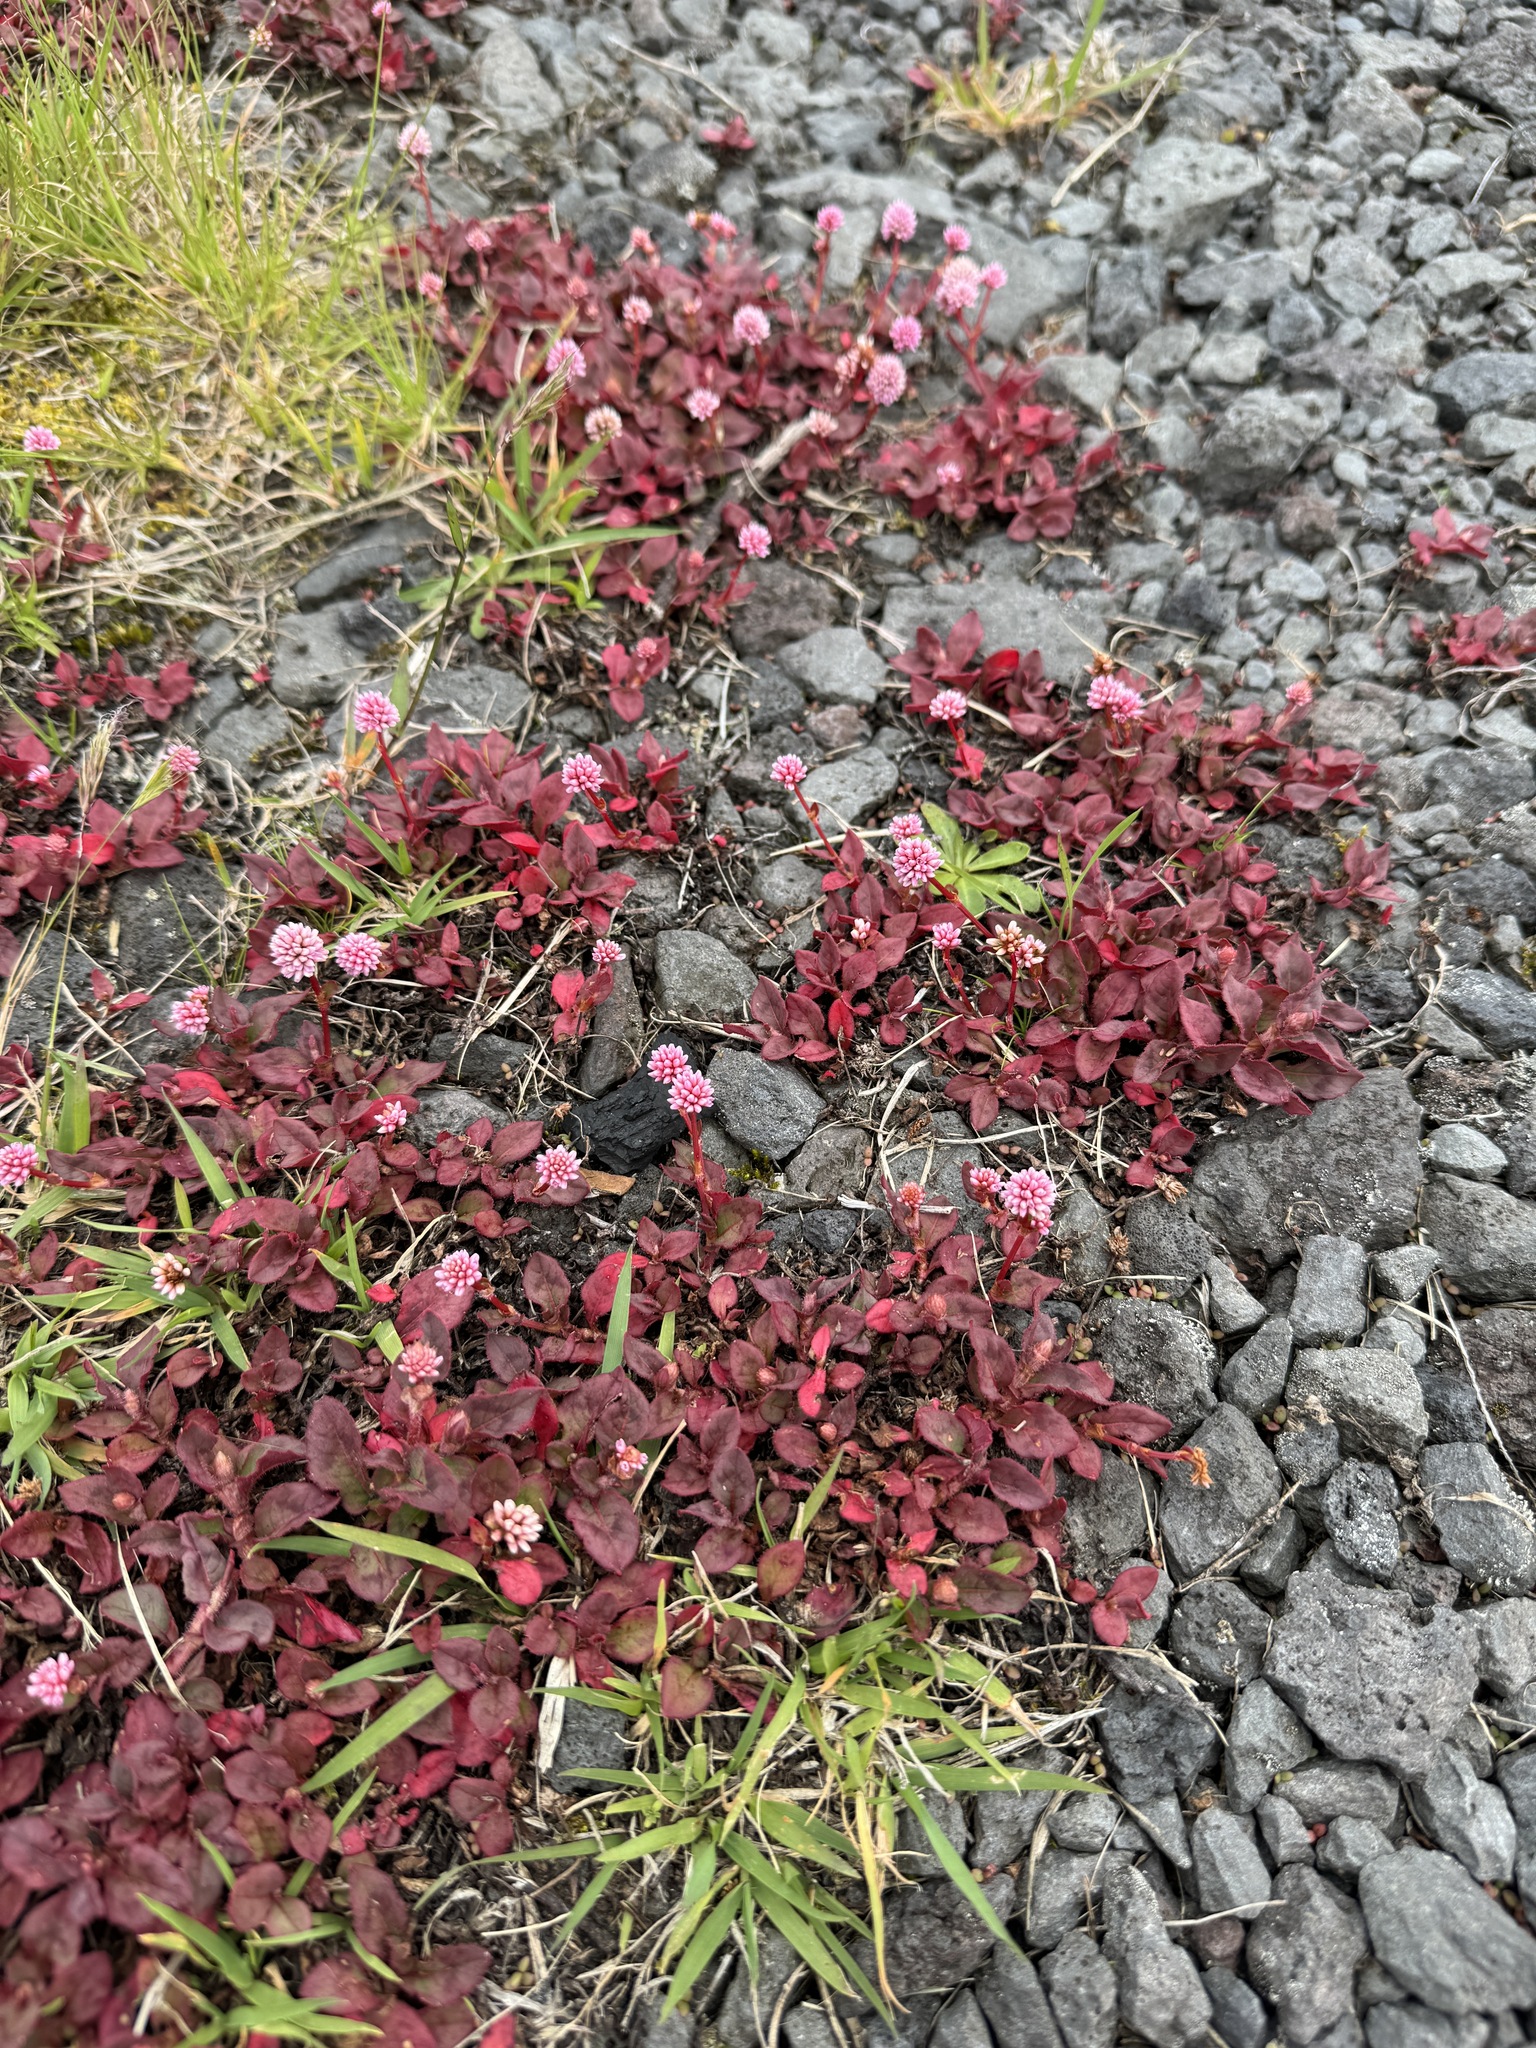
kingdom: Plantae
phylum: Tracheophyta
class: Magnoliopsida
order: Caryophyllales
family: Polygonaceae
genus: Persicaria
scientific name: Persicaria capitata
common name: Pinkhead smartweed
